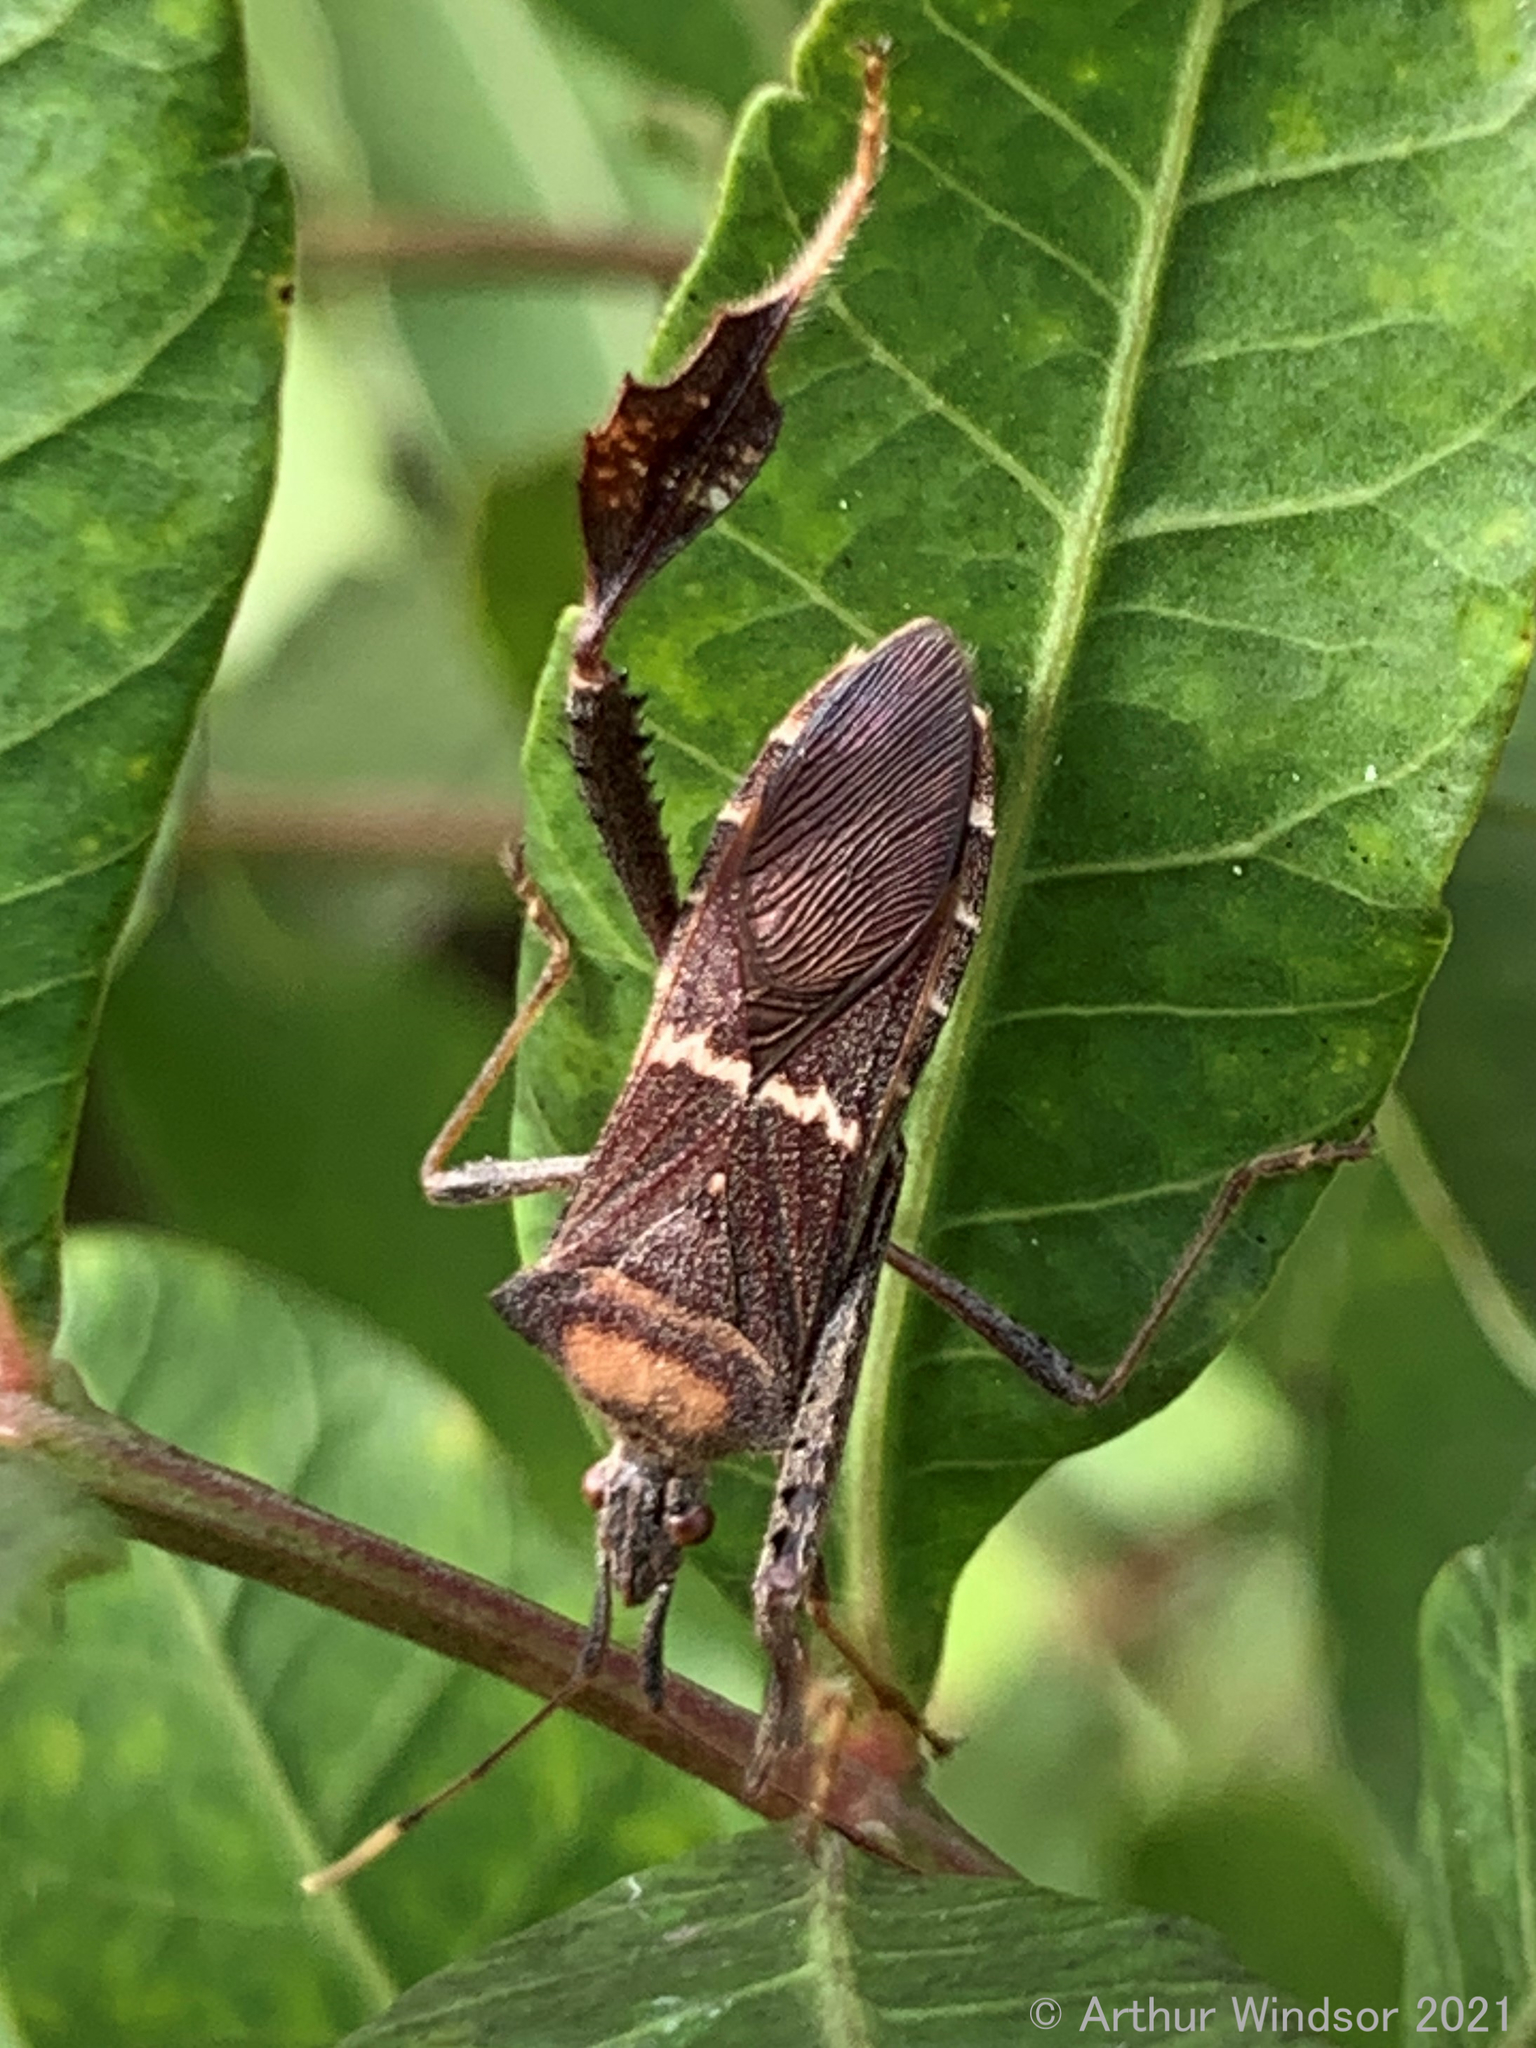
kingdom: Animalia
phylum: Arthropoda
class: Insecta
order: Hemiptera
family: Coreidae
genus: Leptoglossus
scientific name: Leptoglossus concolor
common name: Leaf-footed bug
